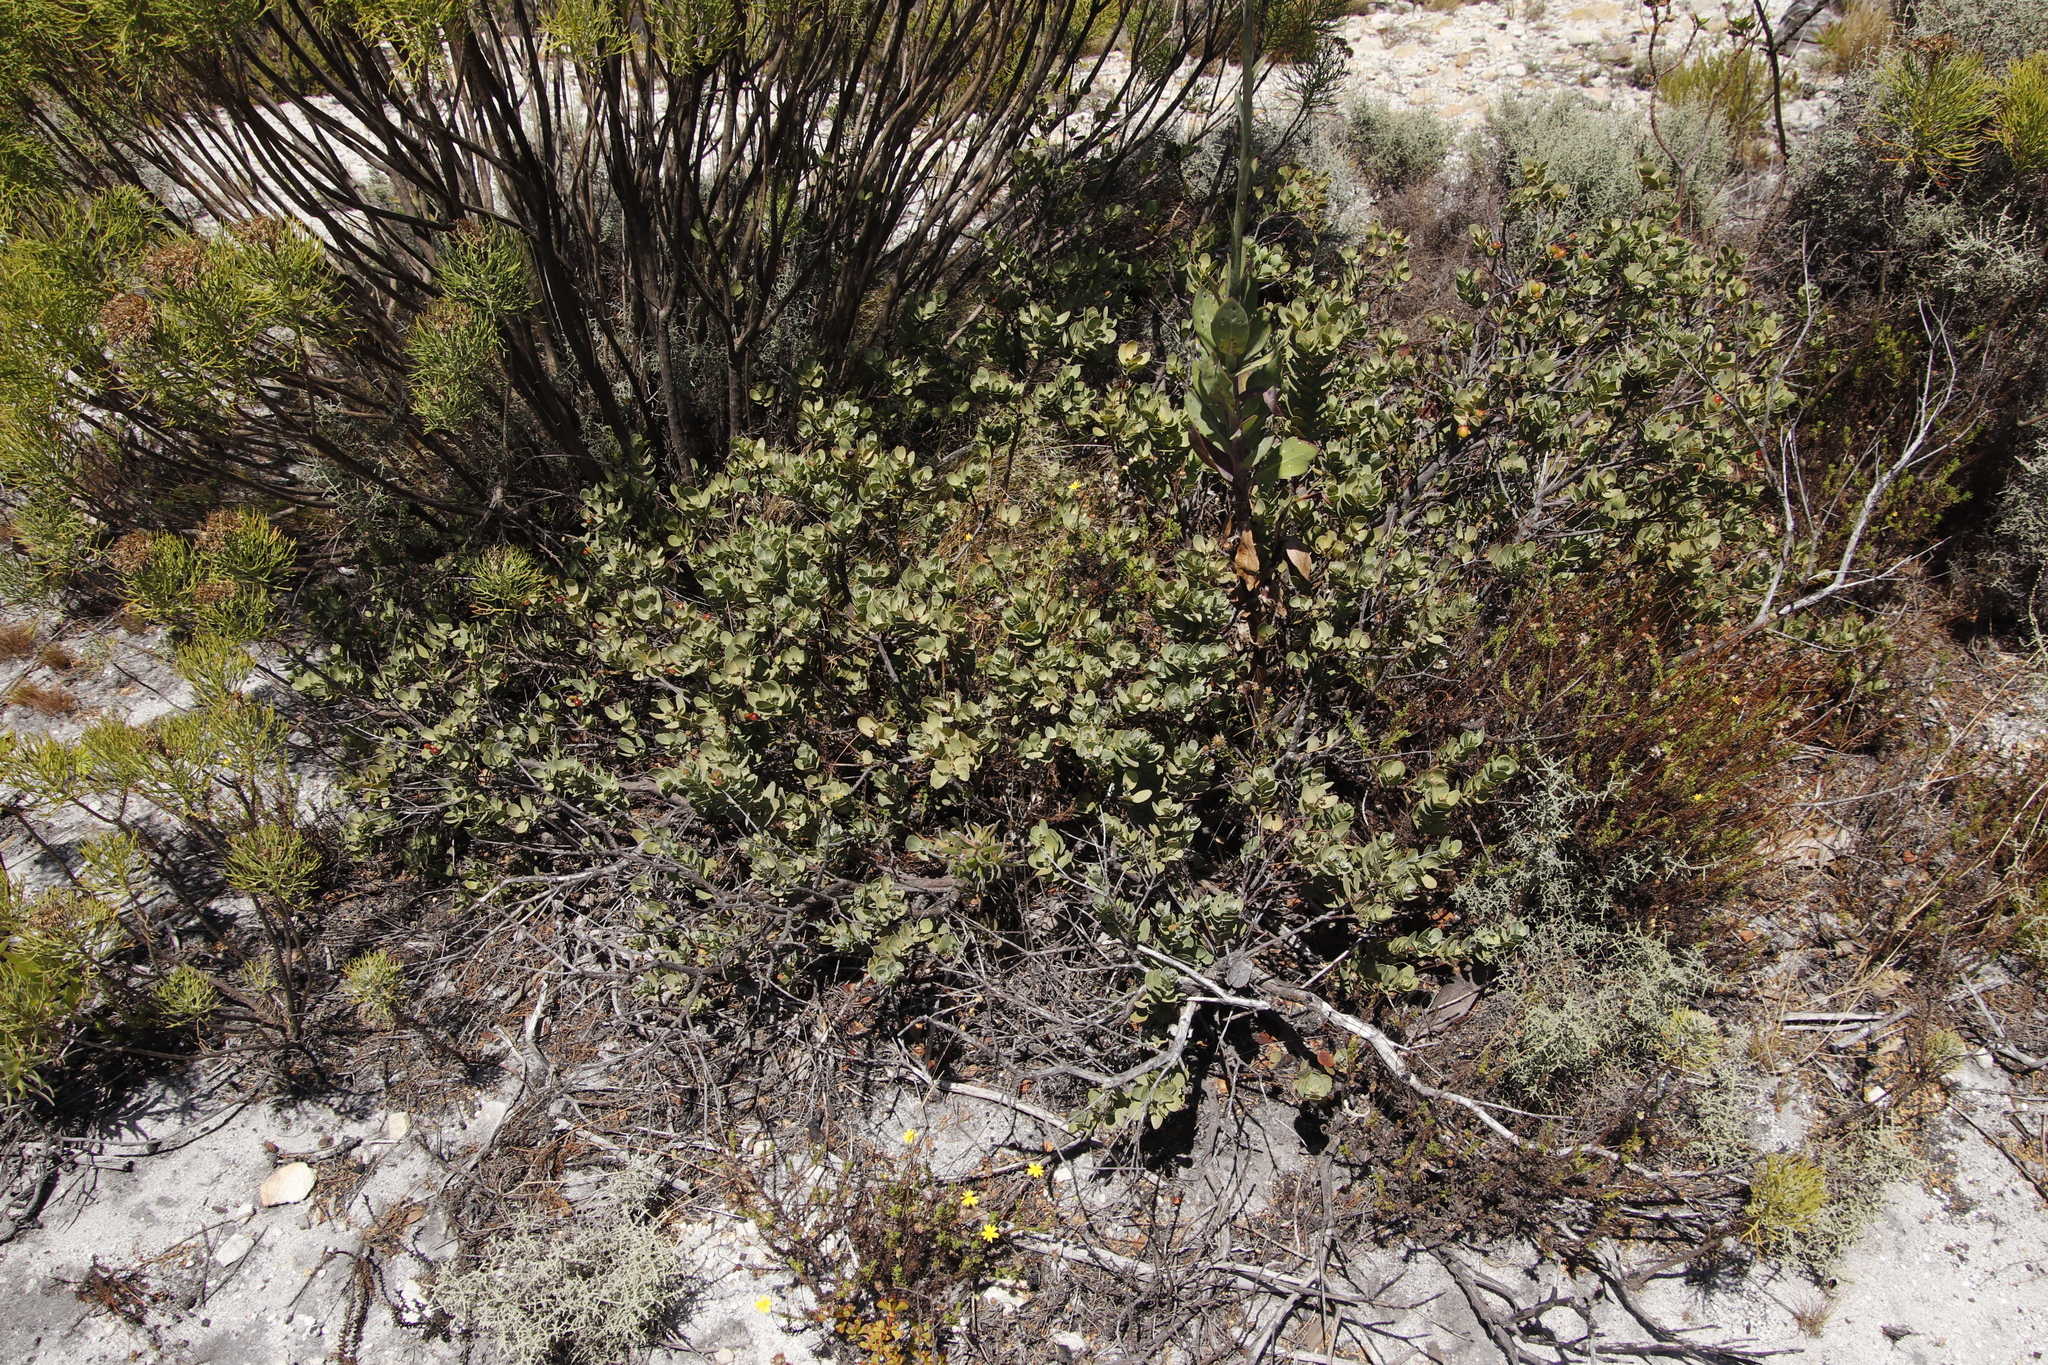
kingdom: Plantae
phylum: Tracheophyta
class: Magnoliopsida
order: Santalales
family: Santalaceae
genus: Osyris
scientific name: Osyris compressa
